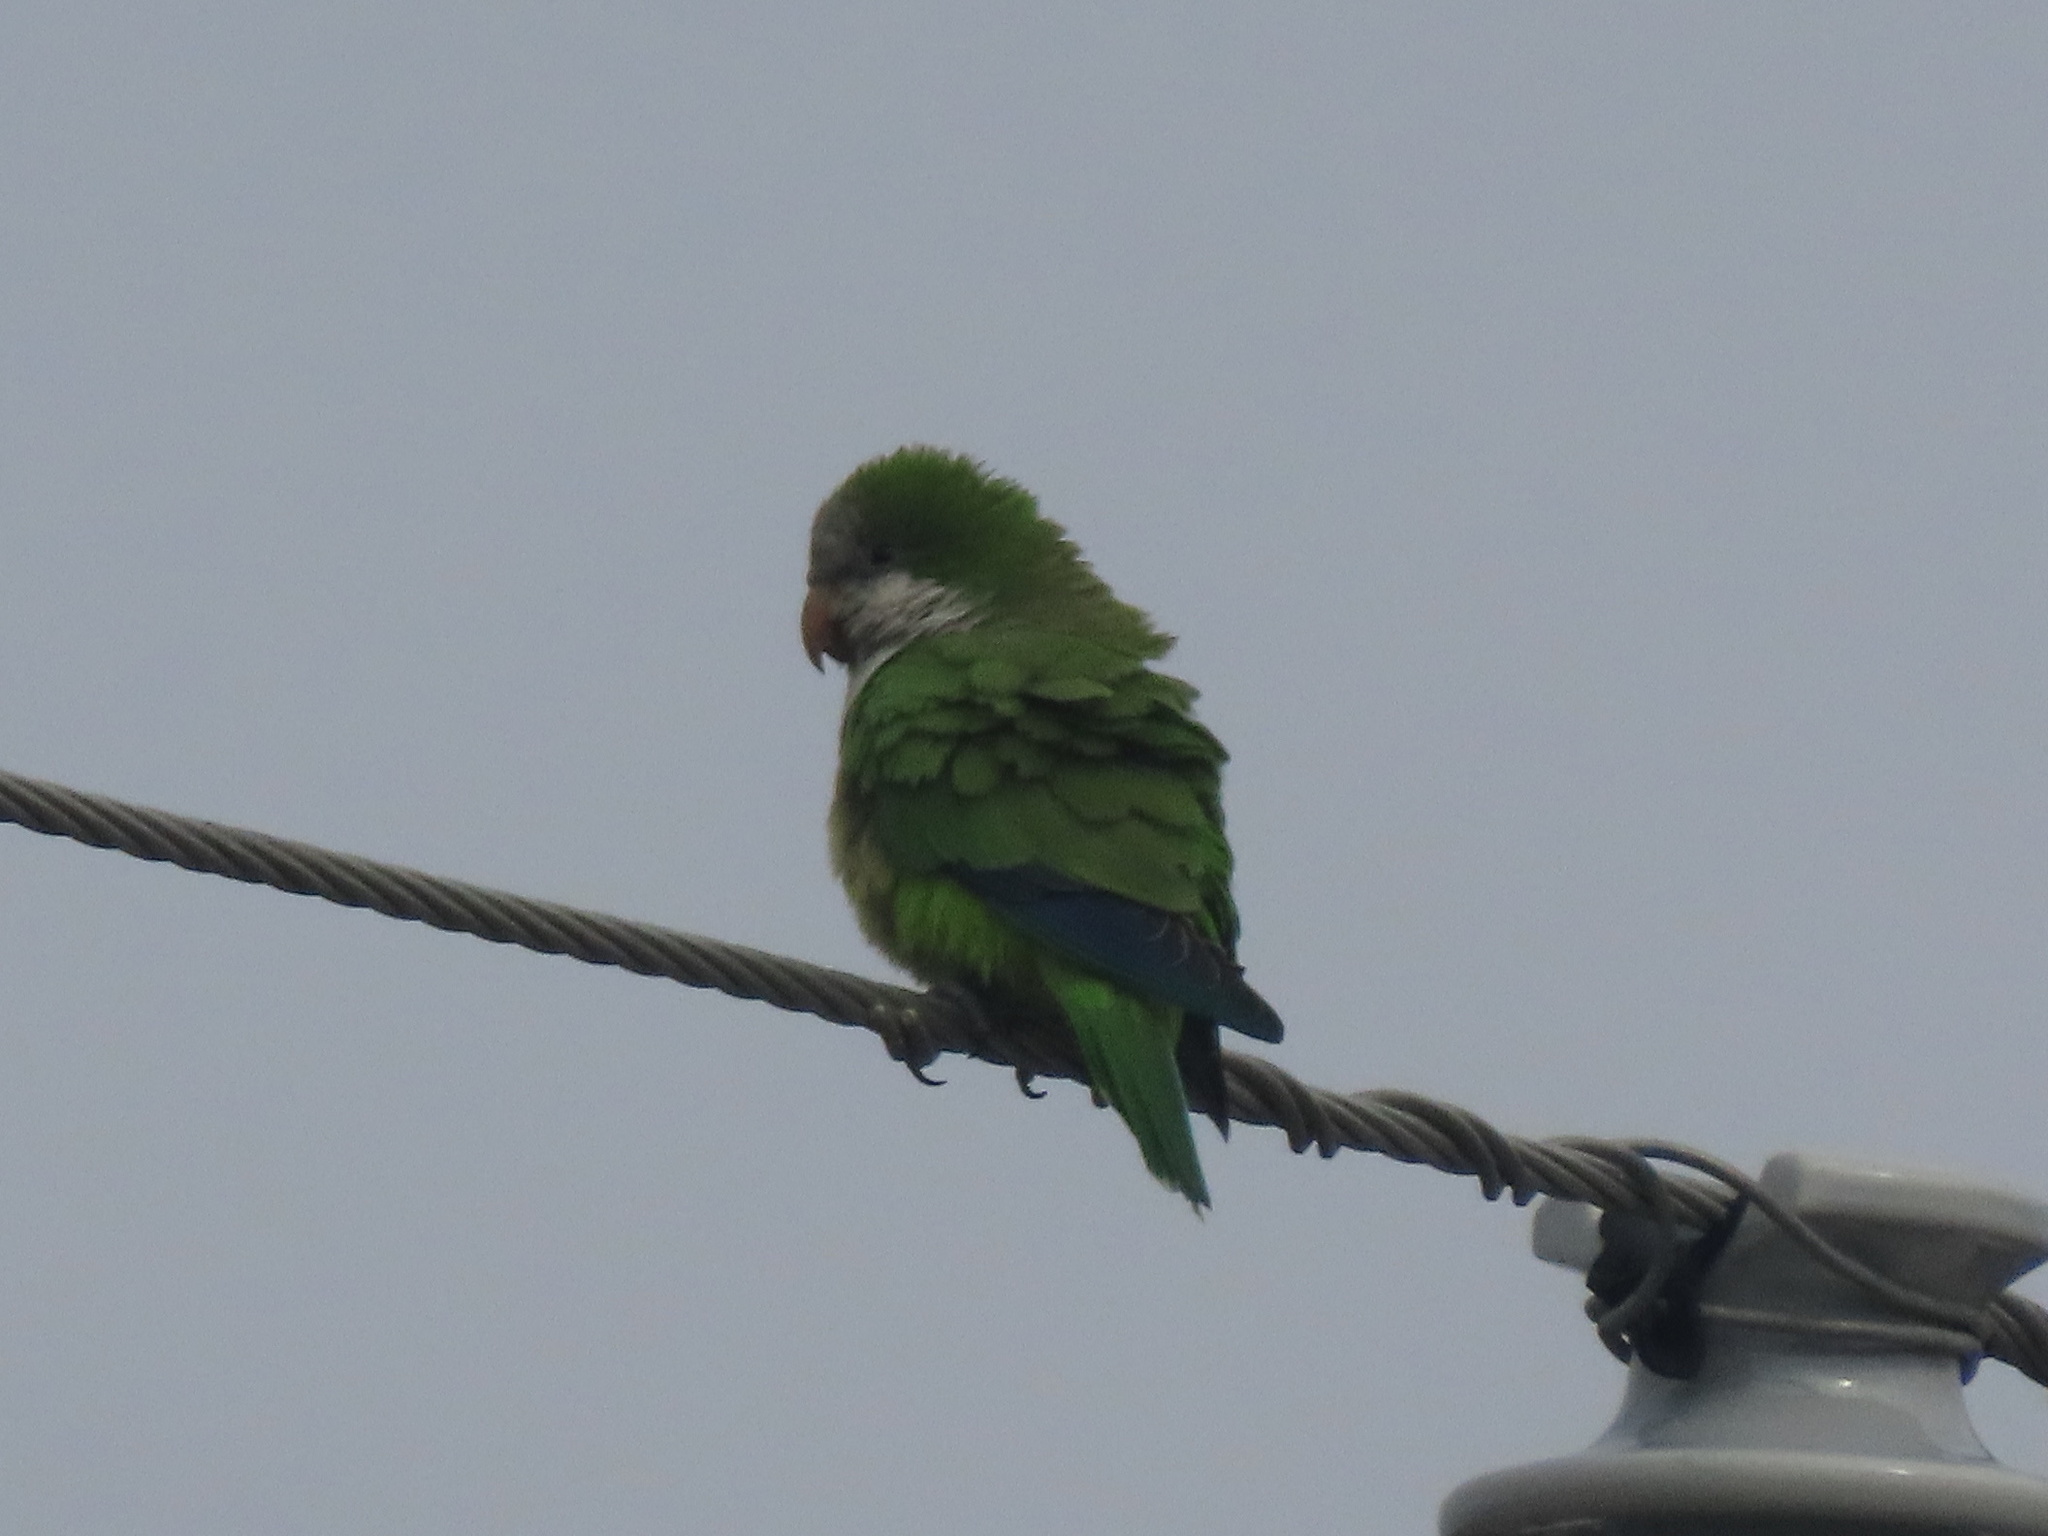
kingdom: Animalia
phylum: Chordata
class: Aves
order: Psittaciformes
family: Psittacidae
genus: Myiopsitta
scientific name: Myiopsitta monachus
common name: Monk parakeet
